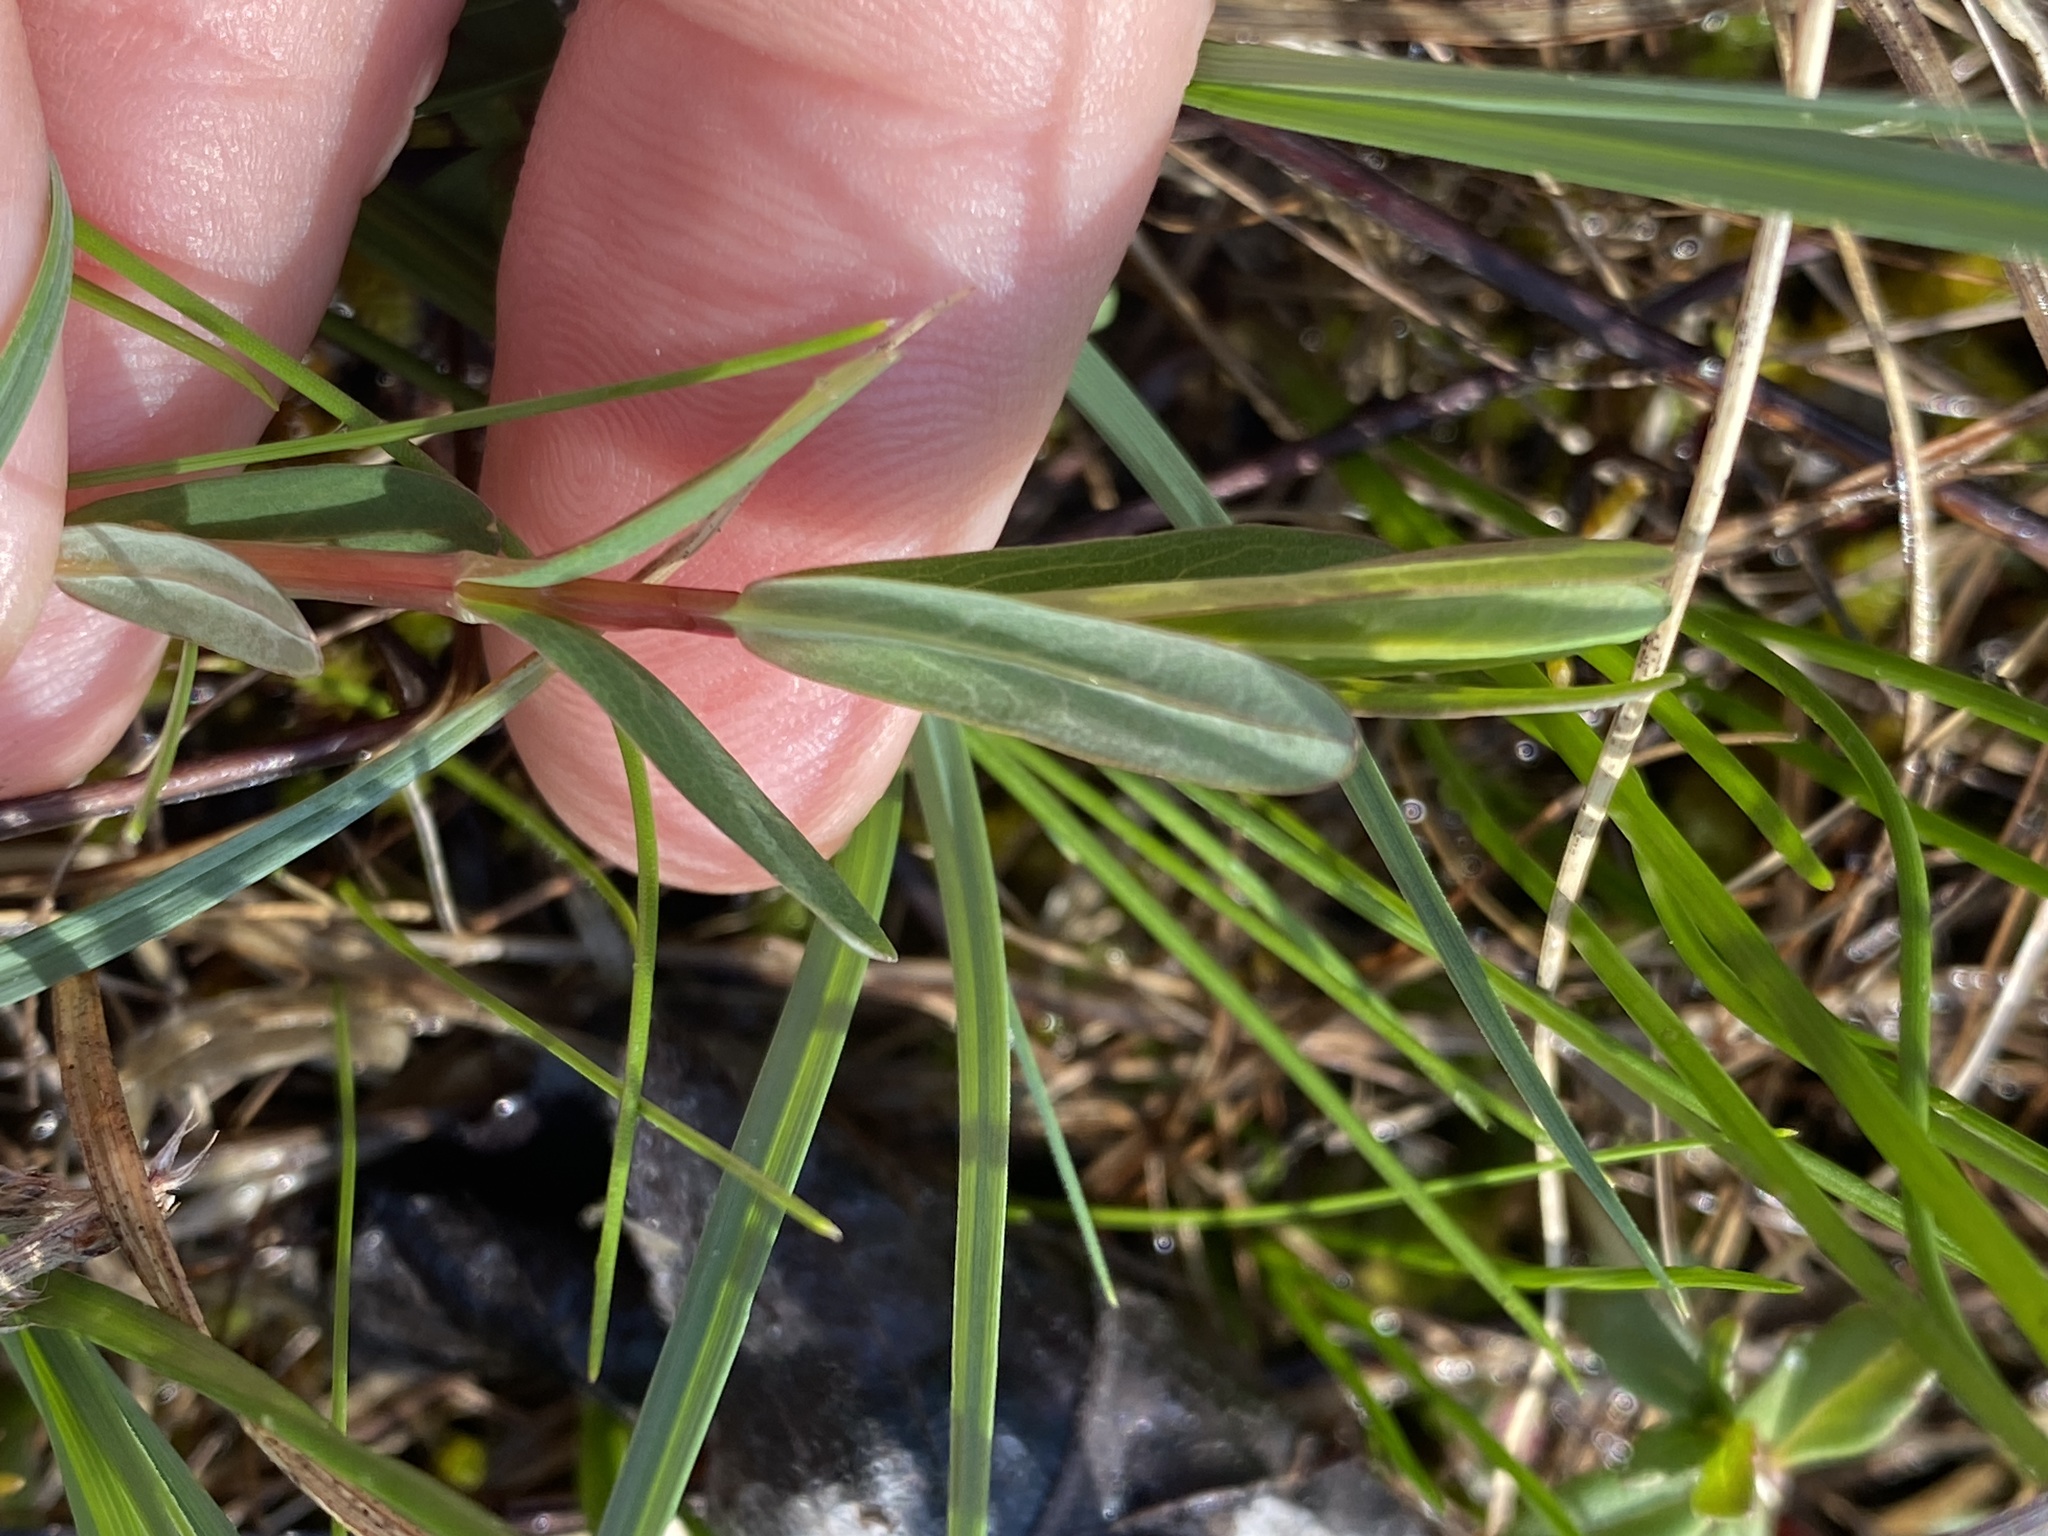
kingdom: Plantae
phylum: Tracheophyta
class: Magnoliopsida
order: Malpighiales
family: Hypericaceae
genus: Hypericum
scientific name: Hypericum sphaerocarpum
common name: Round-fruited st. john's-wort
